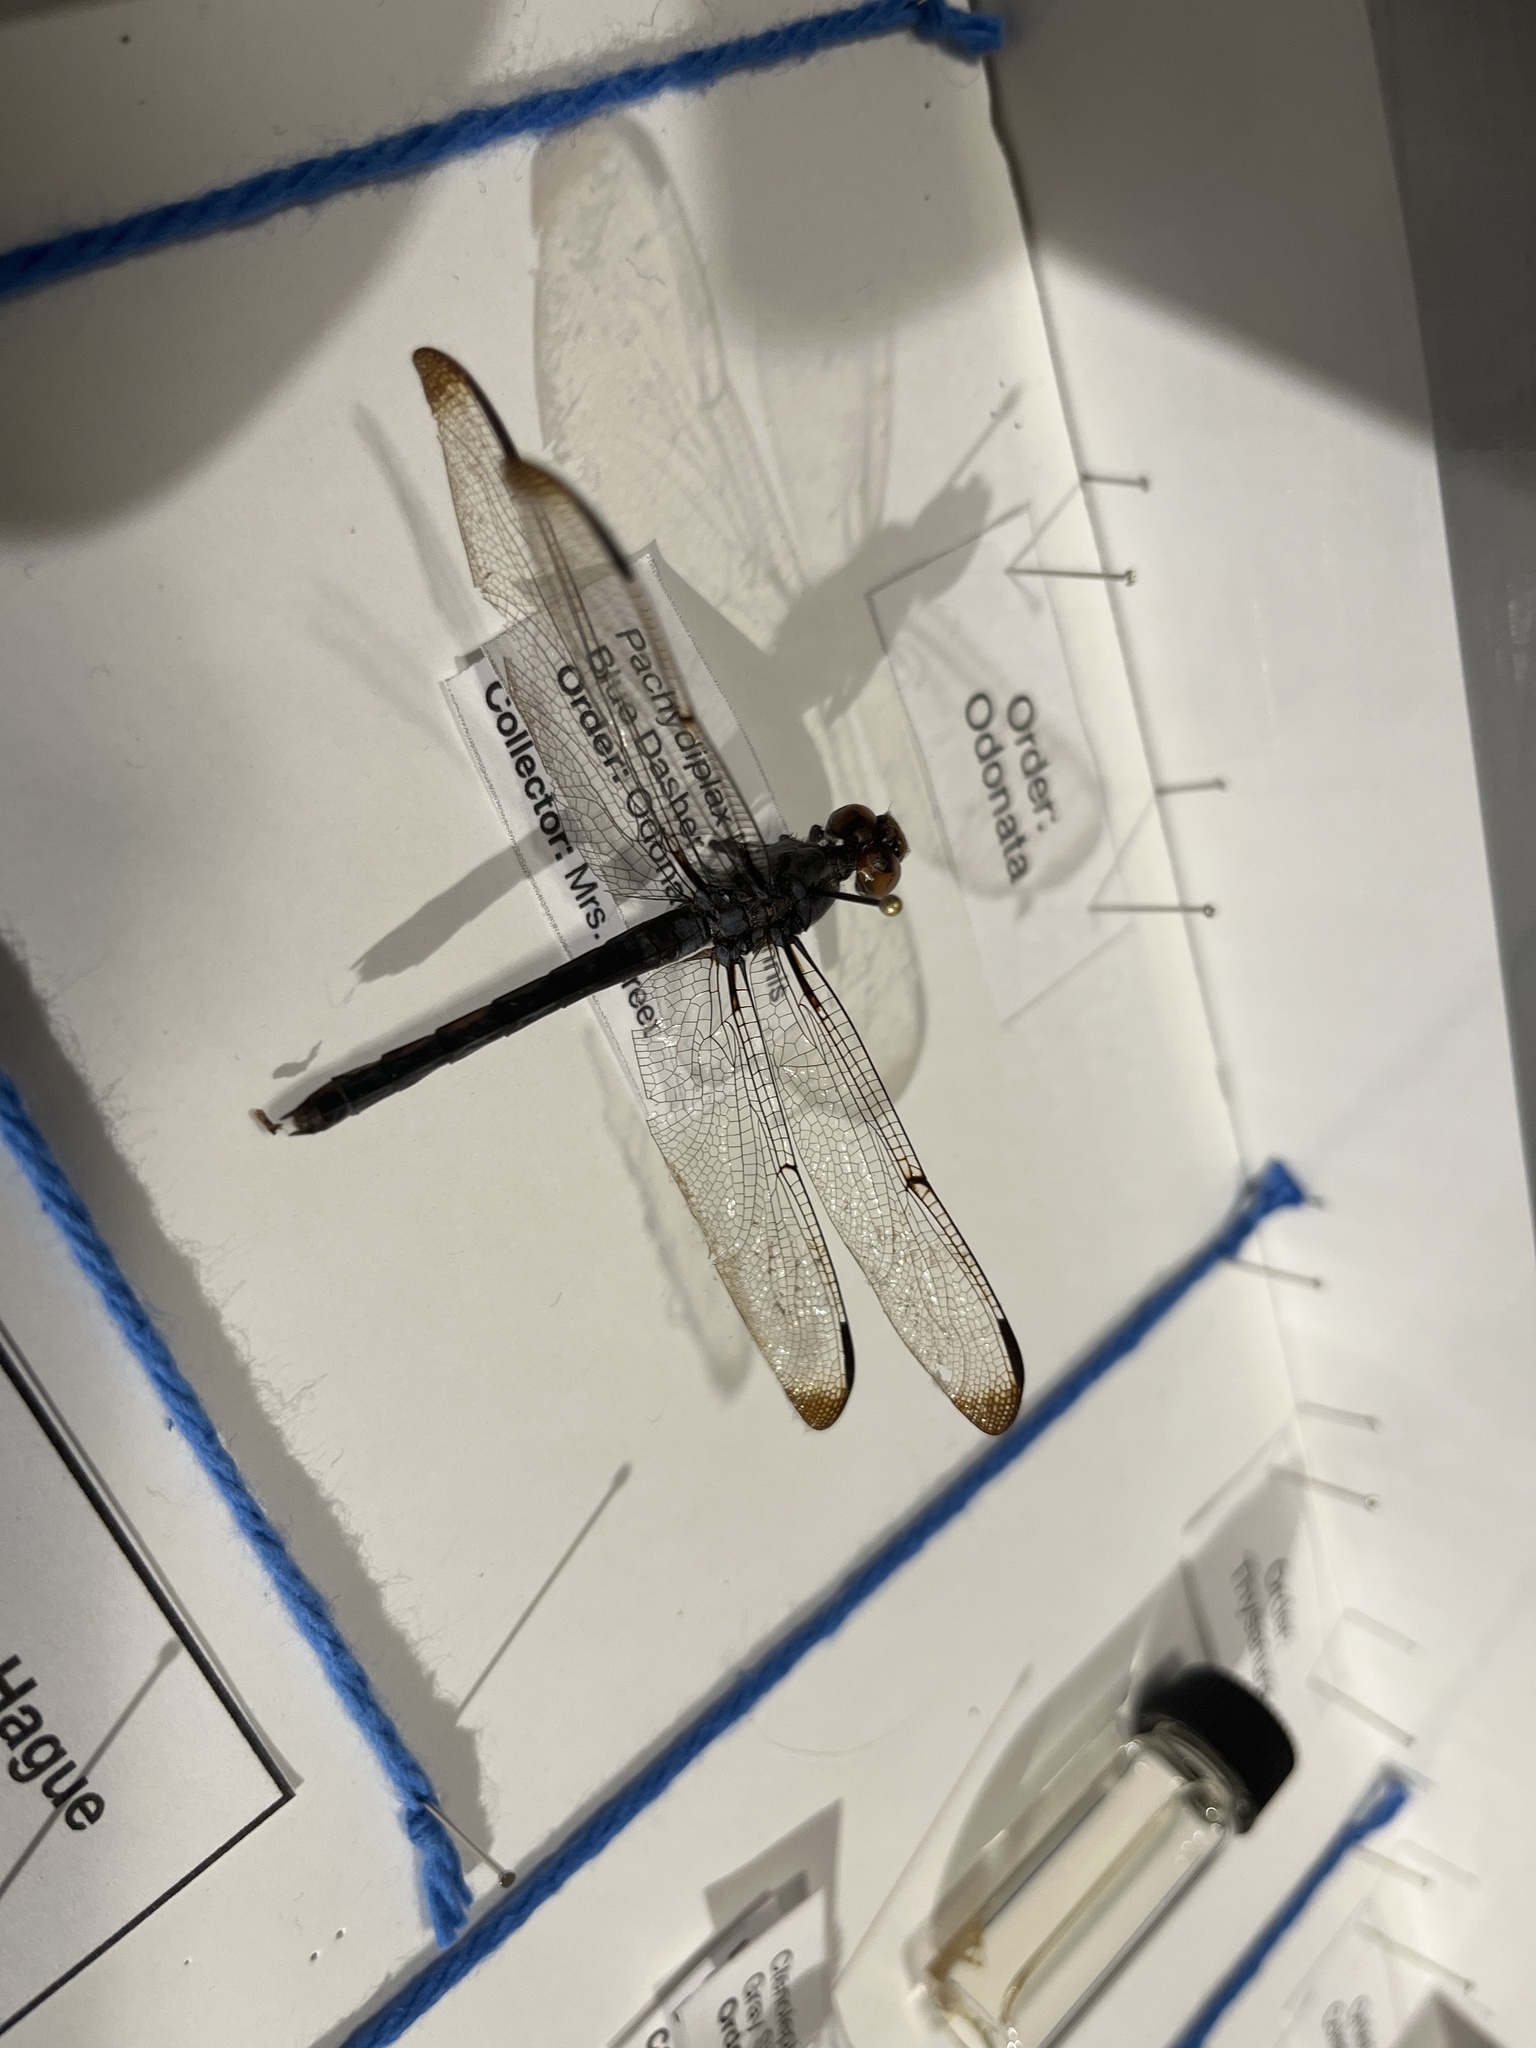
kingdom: Animalia
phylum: Arthropoda
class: Insecta
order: Odonata
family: Libellulidae
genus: Libellula
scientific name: Libellula incesta
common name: Slaty skimmer
